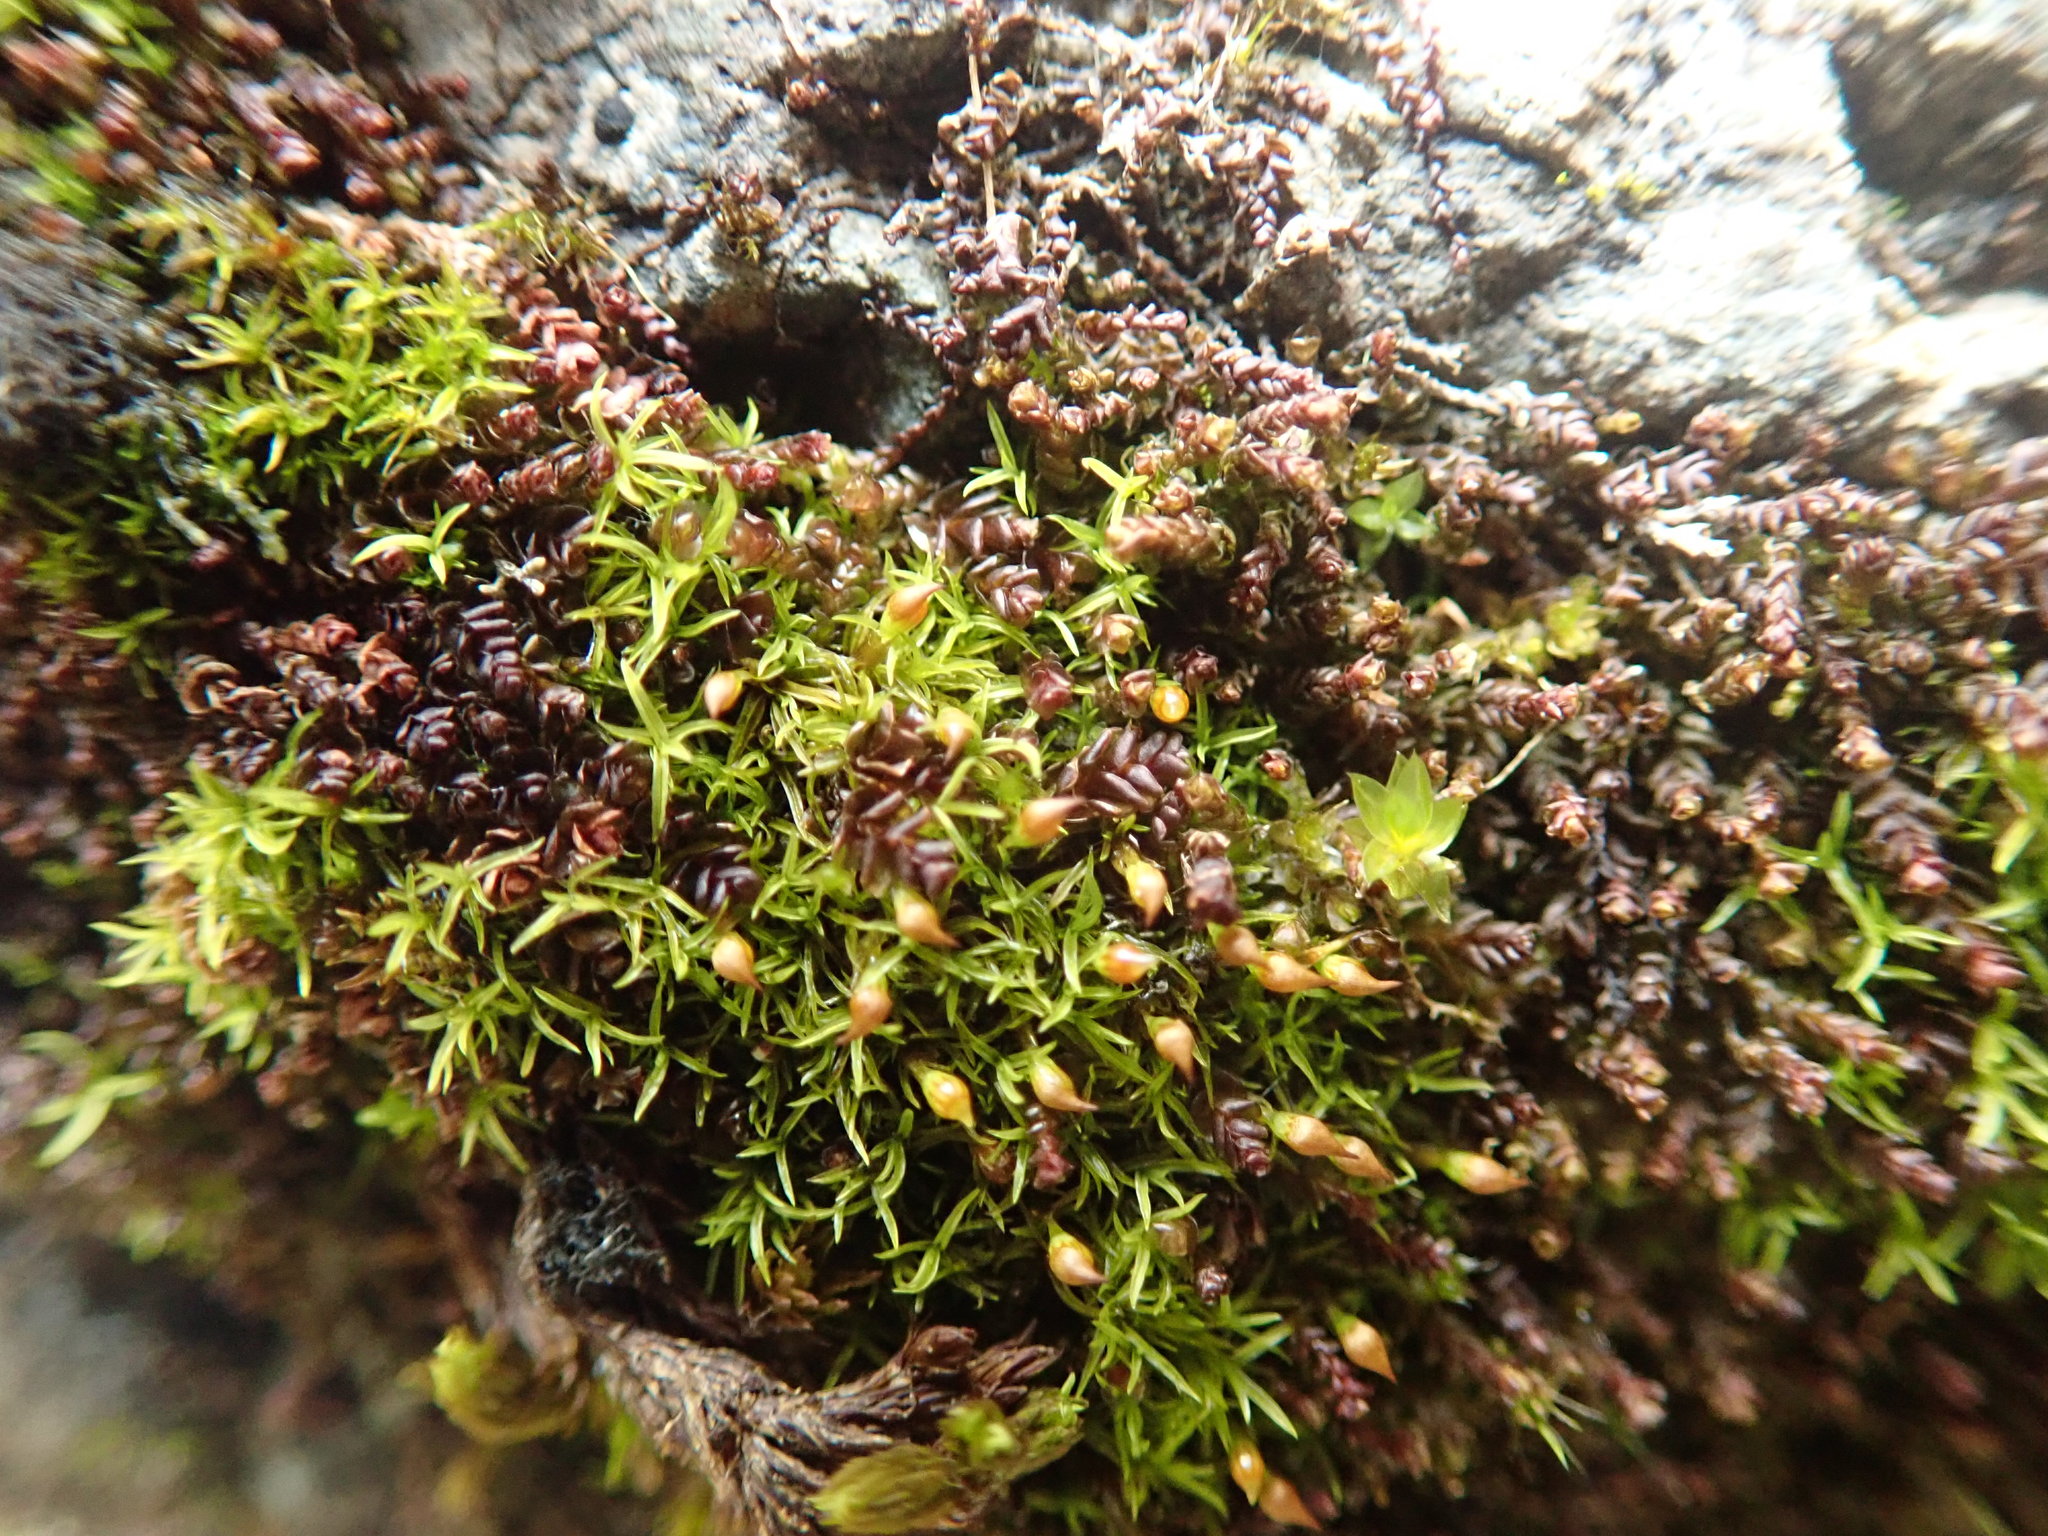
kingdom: Plantae
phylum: Bryophyta
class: Bryopsida
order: Dicranales
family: Amphidiaceae
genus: Amphidium
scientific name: Amphidium lapponicum
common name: Lapland yoke moss
